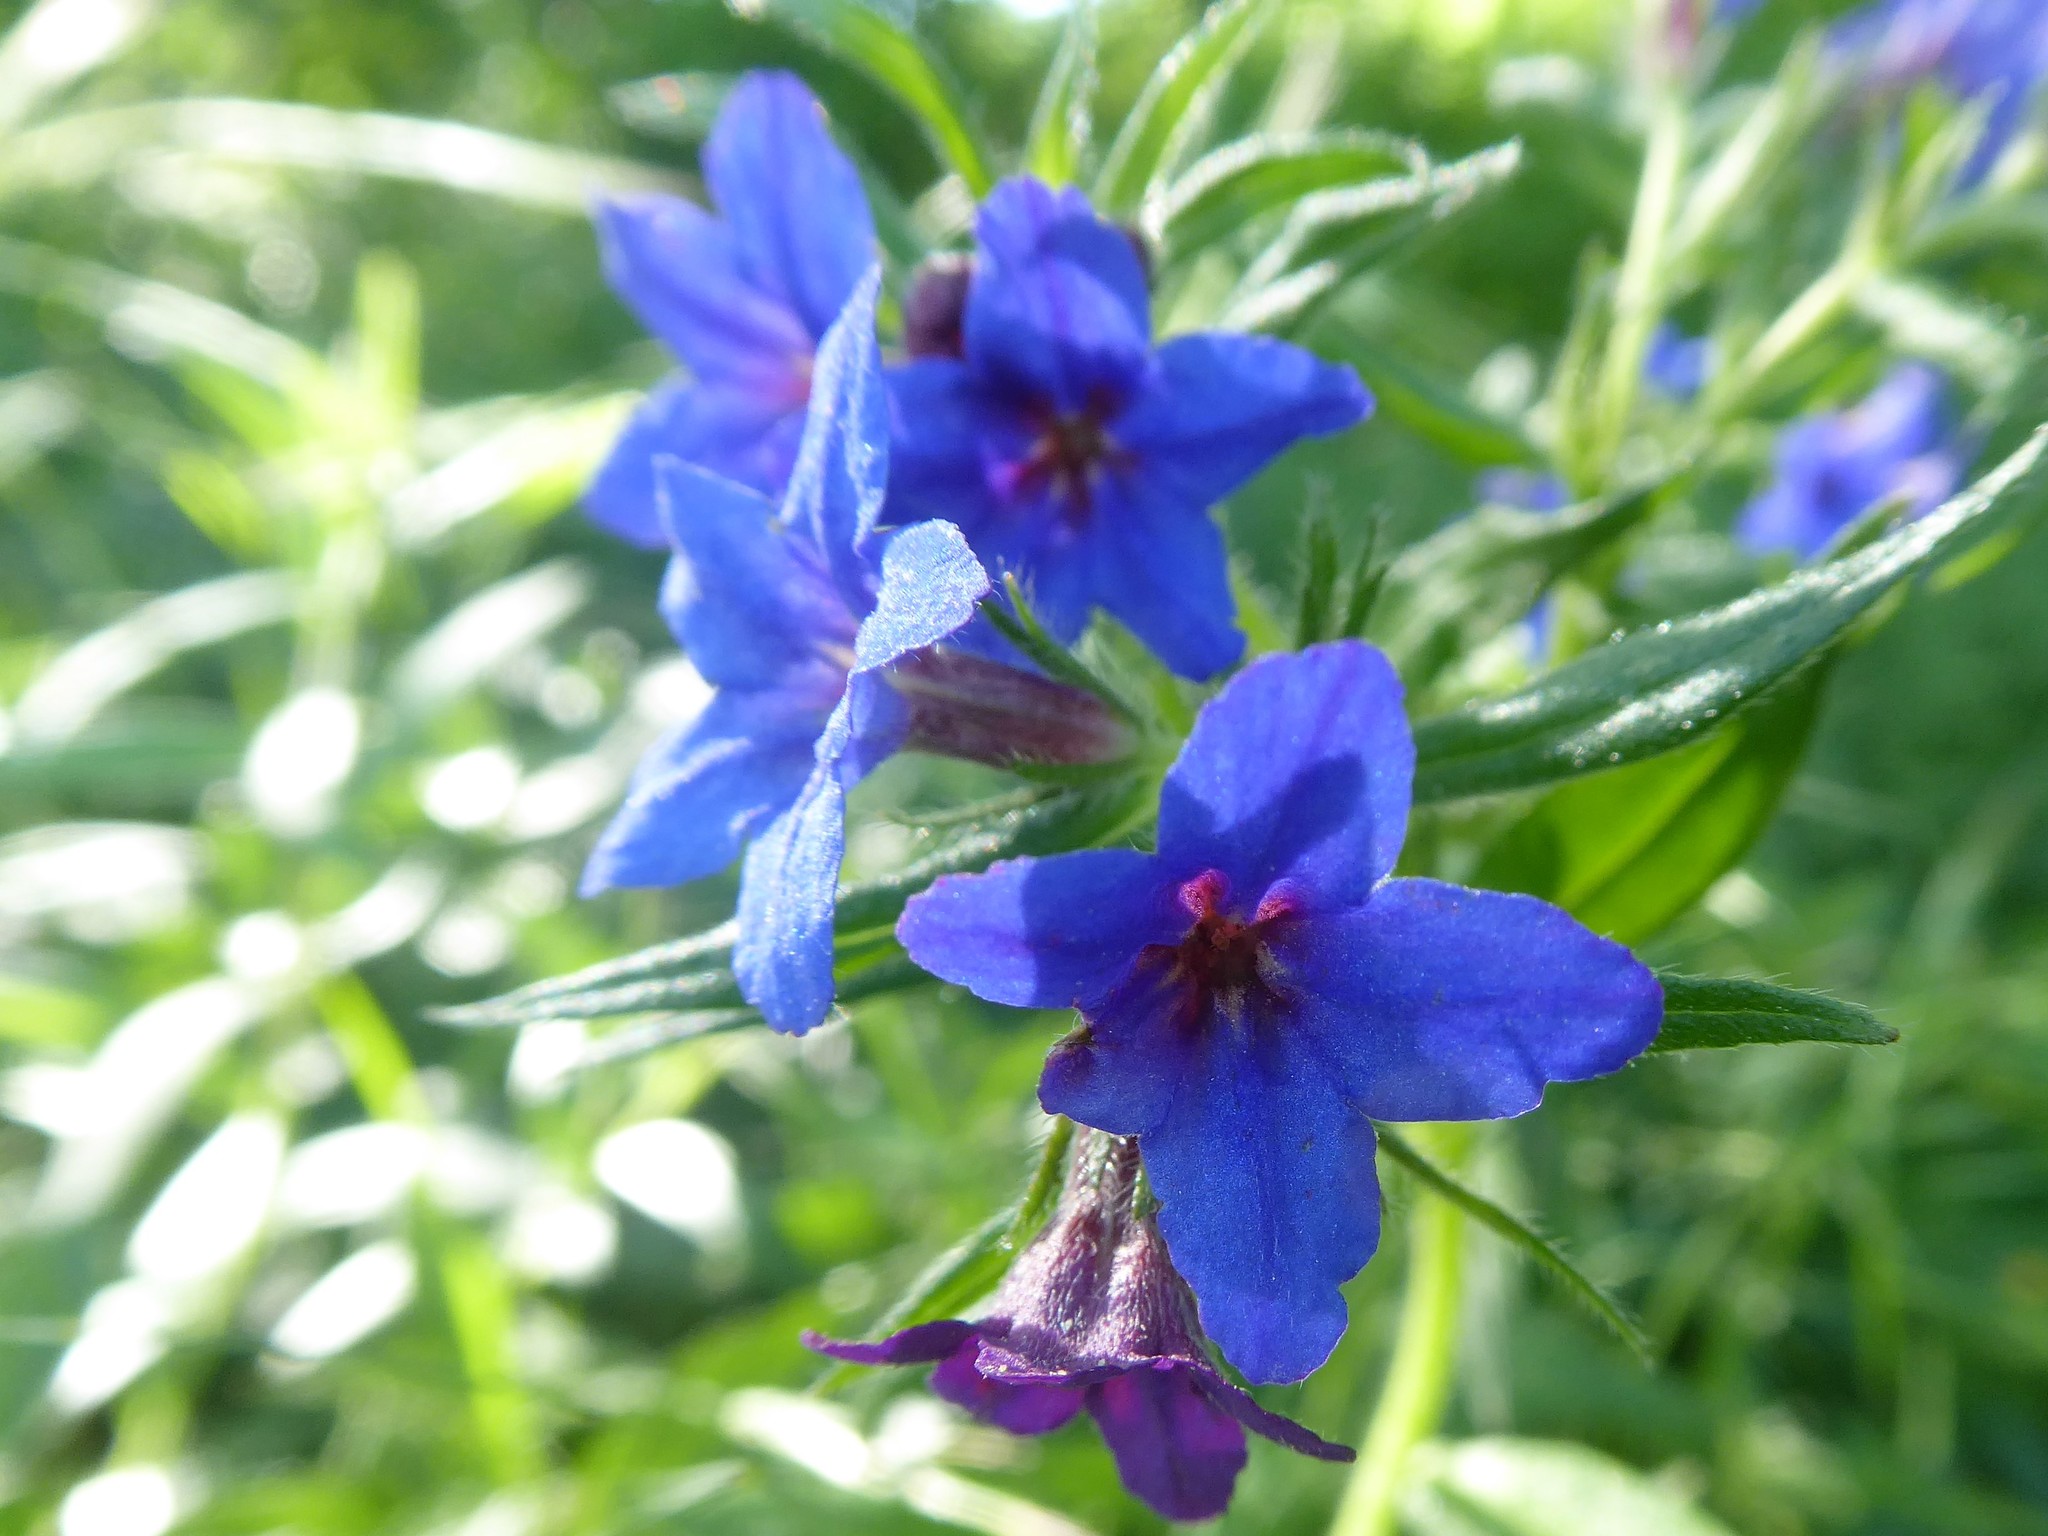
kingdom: Plantae
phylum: Tracheophyta
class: Magnoliopsida
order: Boraginales
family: Boraginaceae
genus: Aegonychon
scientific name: Aegonychon purpurocaeruleum
